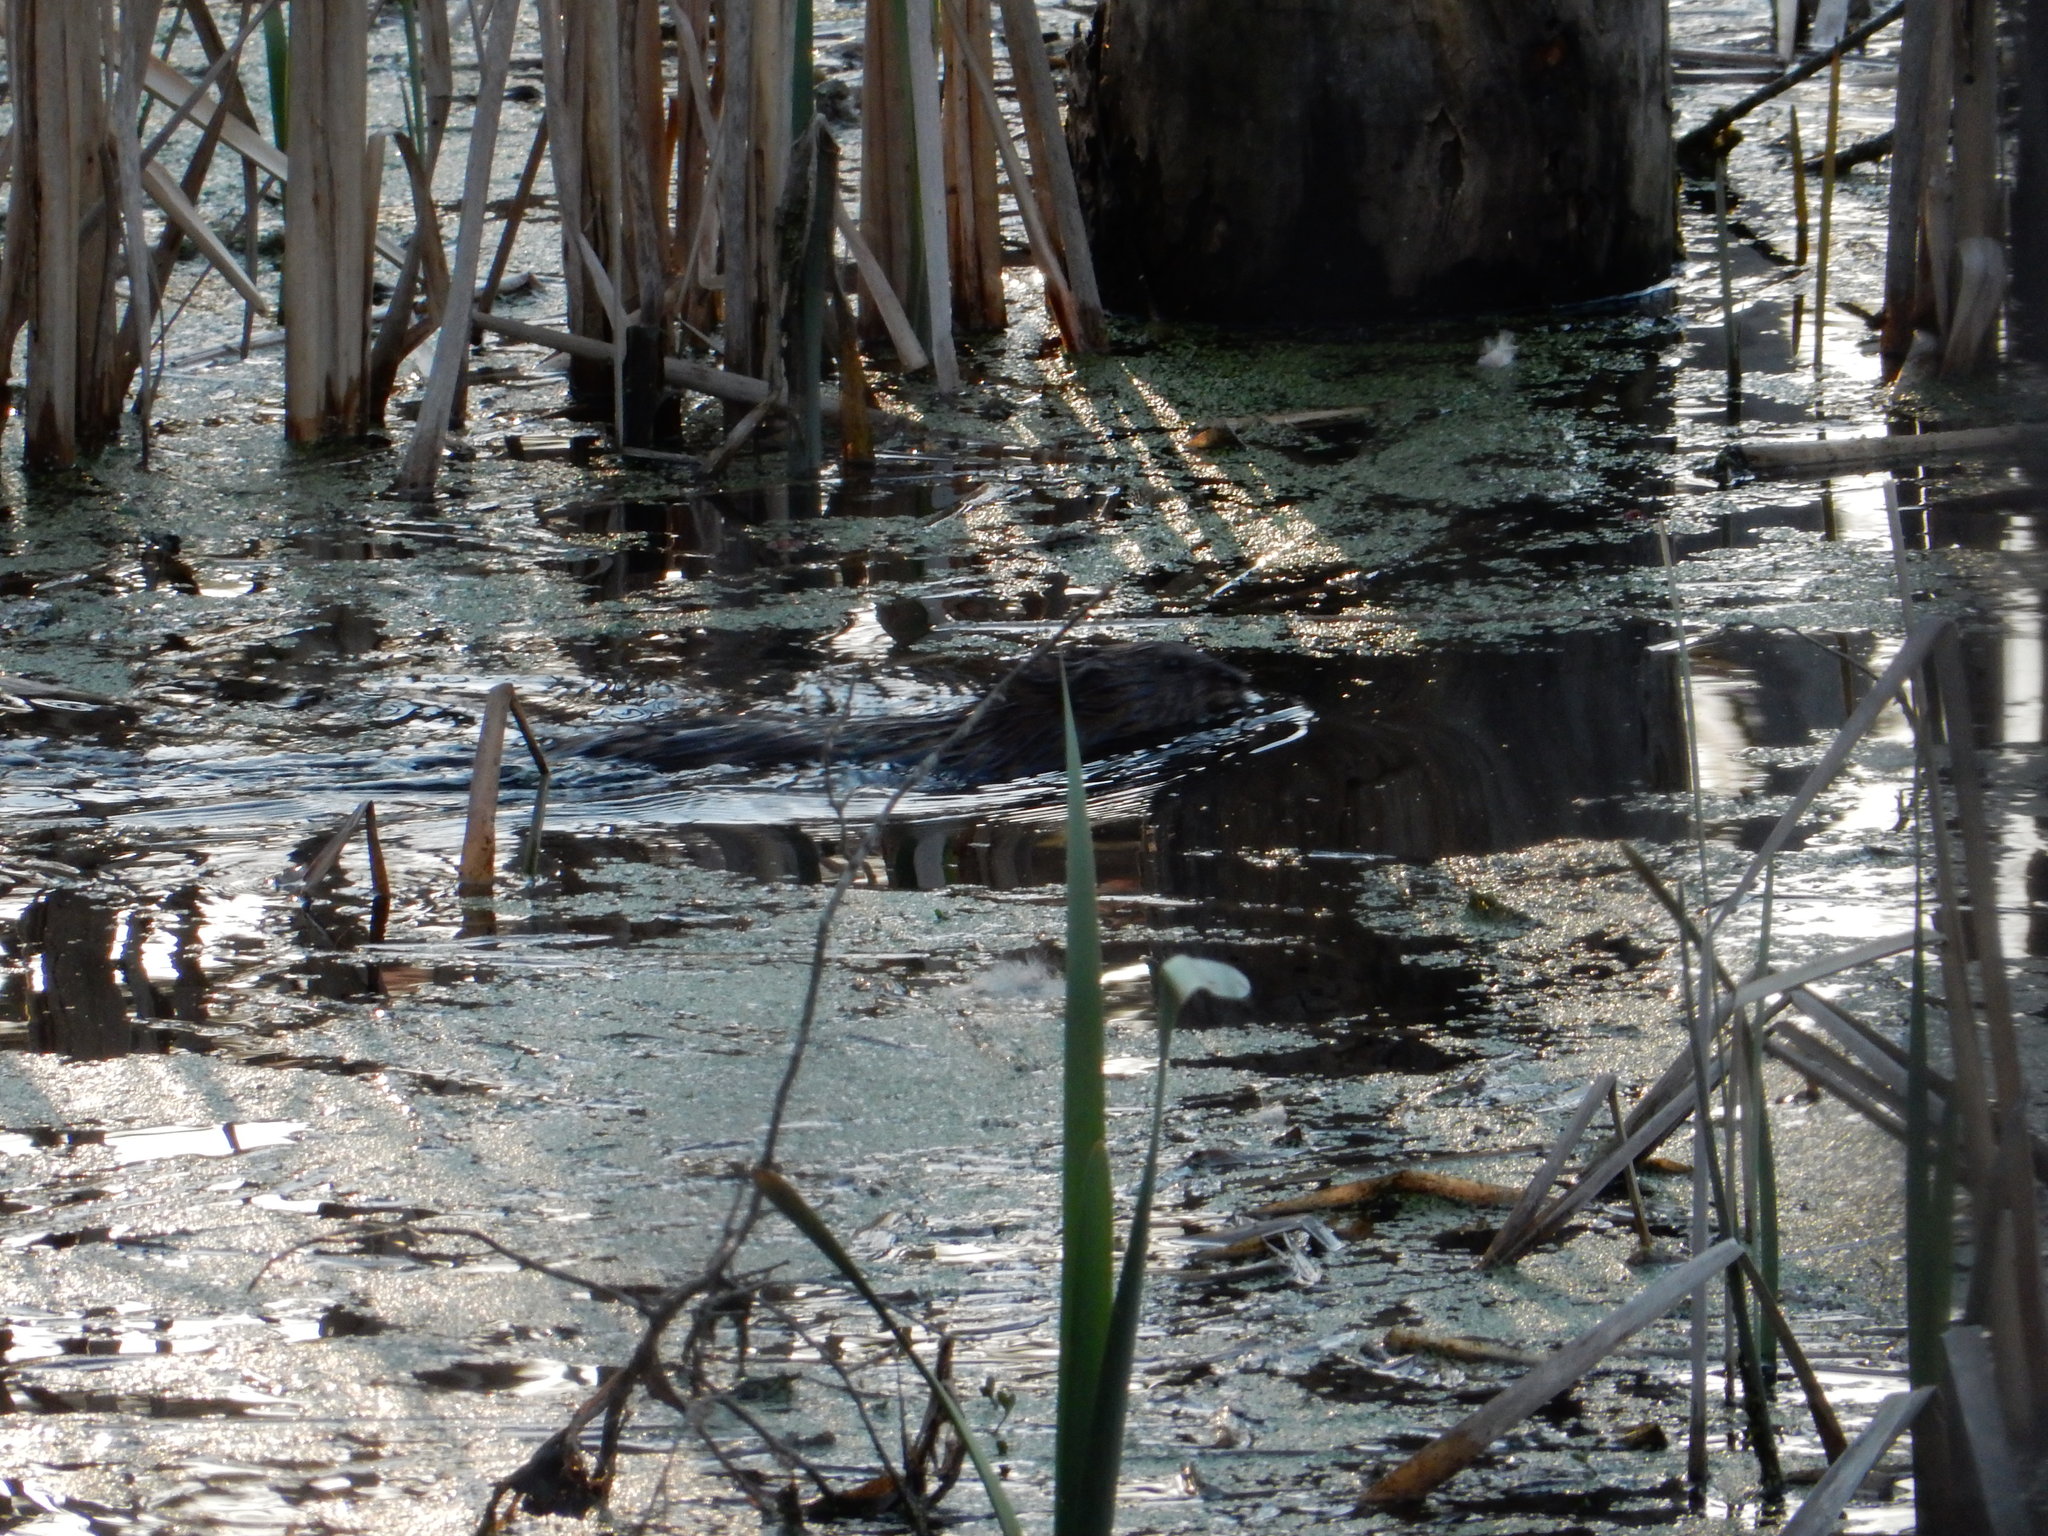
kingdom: Animalia
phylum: Chordata
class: Mammalia
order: Rodentia
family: Cricetidae
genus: Ondatra
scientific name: Ondatra zibethicus
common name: Muskrat
